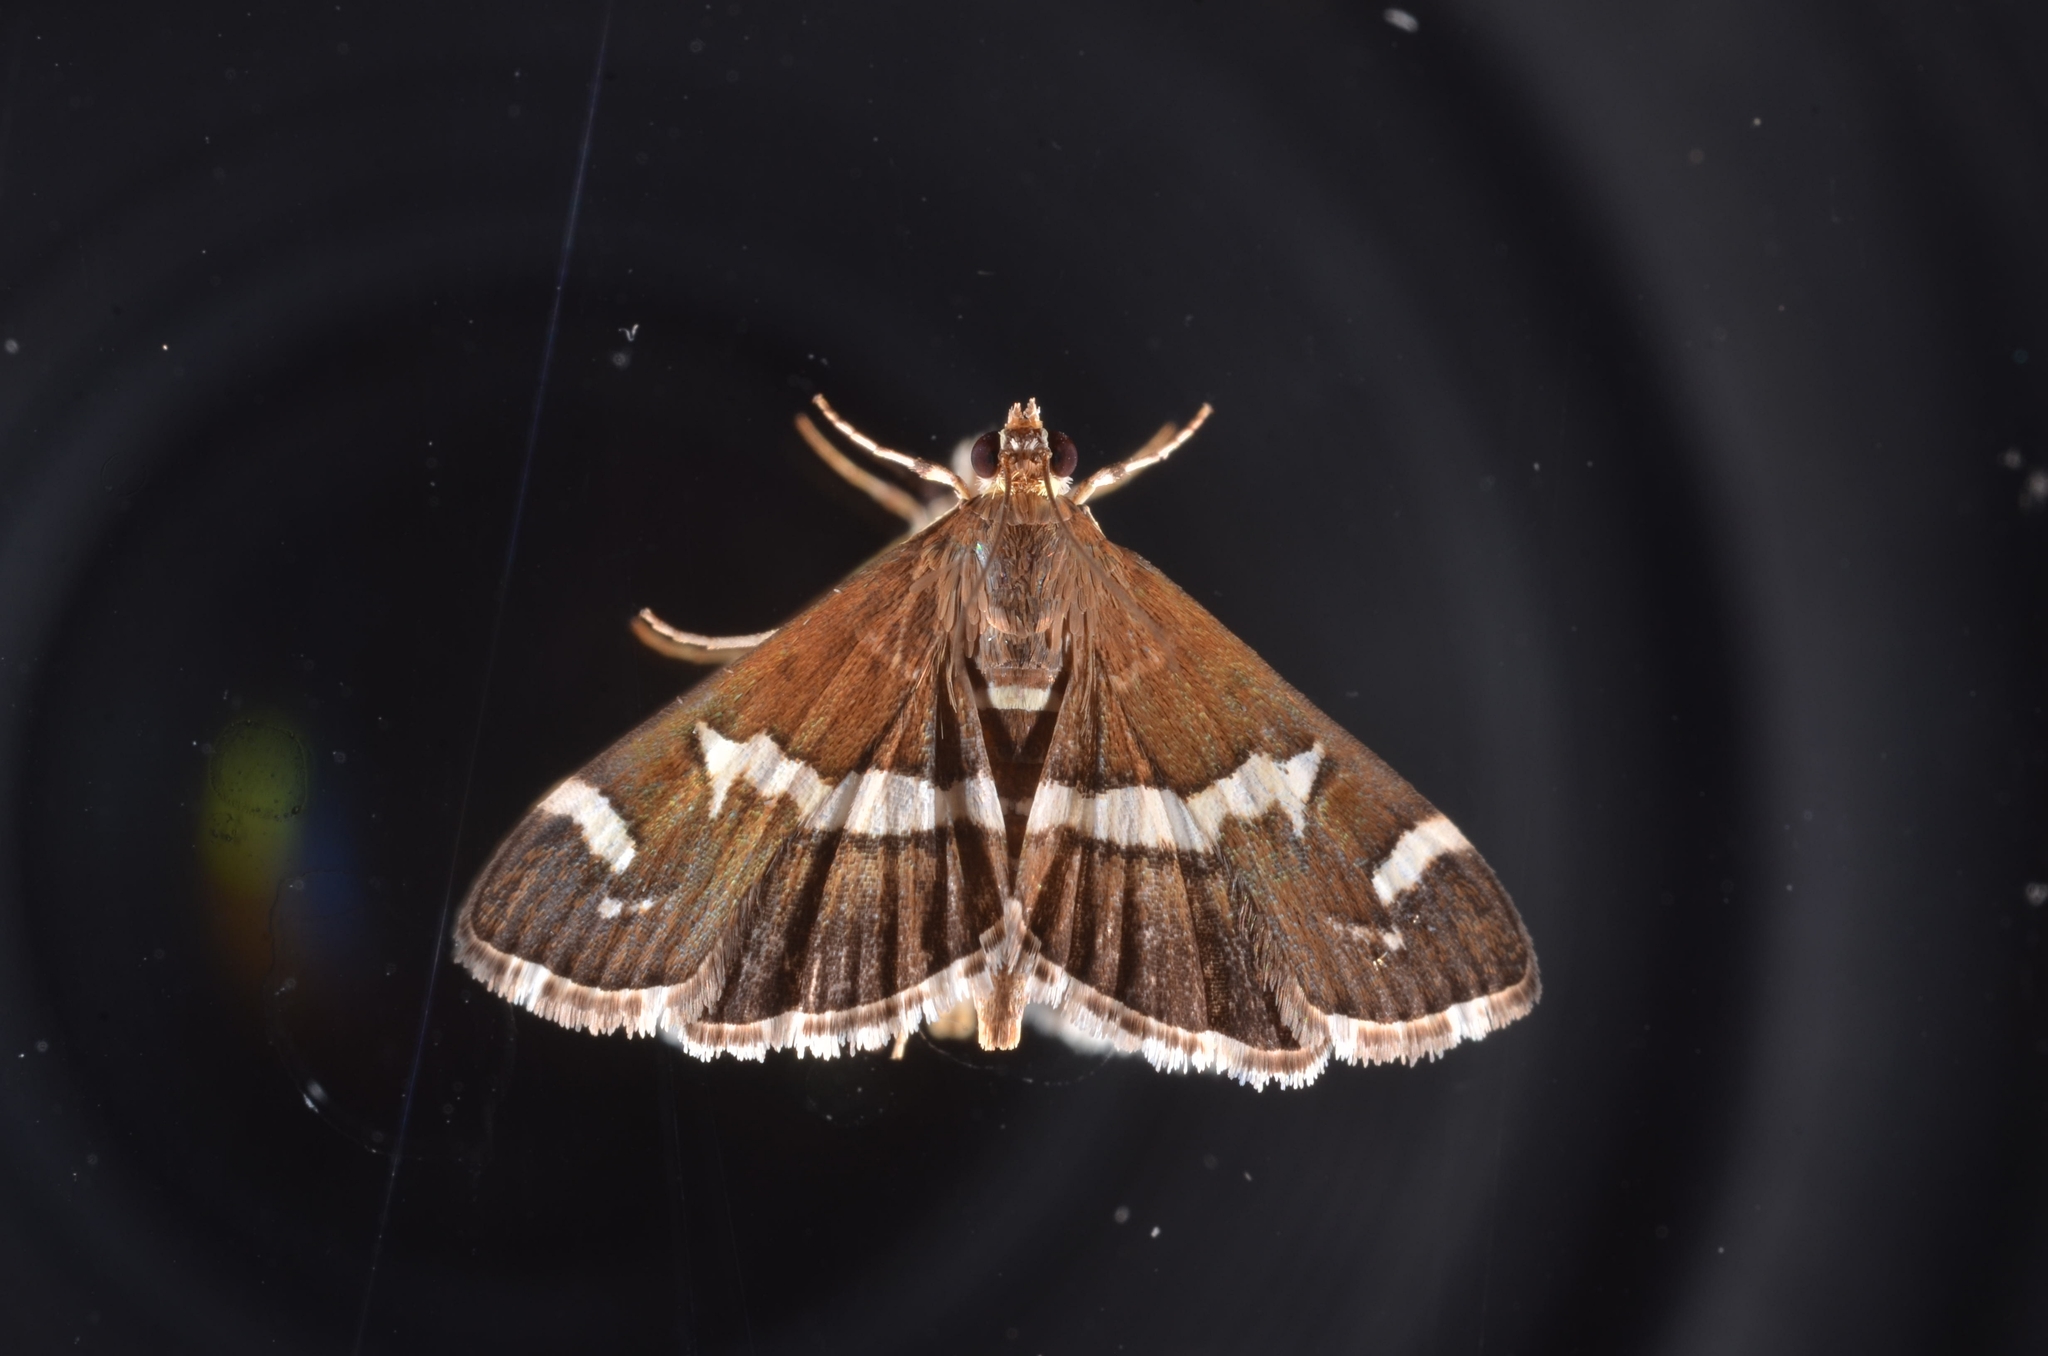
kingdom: Animalia
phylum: Arthropoda
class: Insecta
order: Lepidoptera
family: Crambidae
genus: Spoladea
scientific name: Spoladea recurvalis
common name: Beet webworm moth
